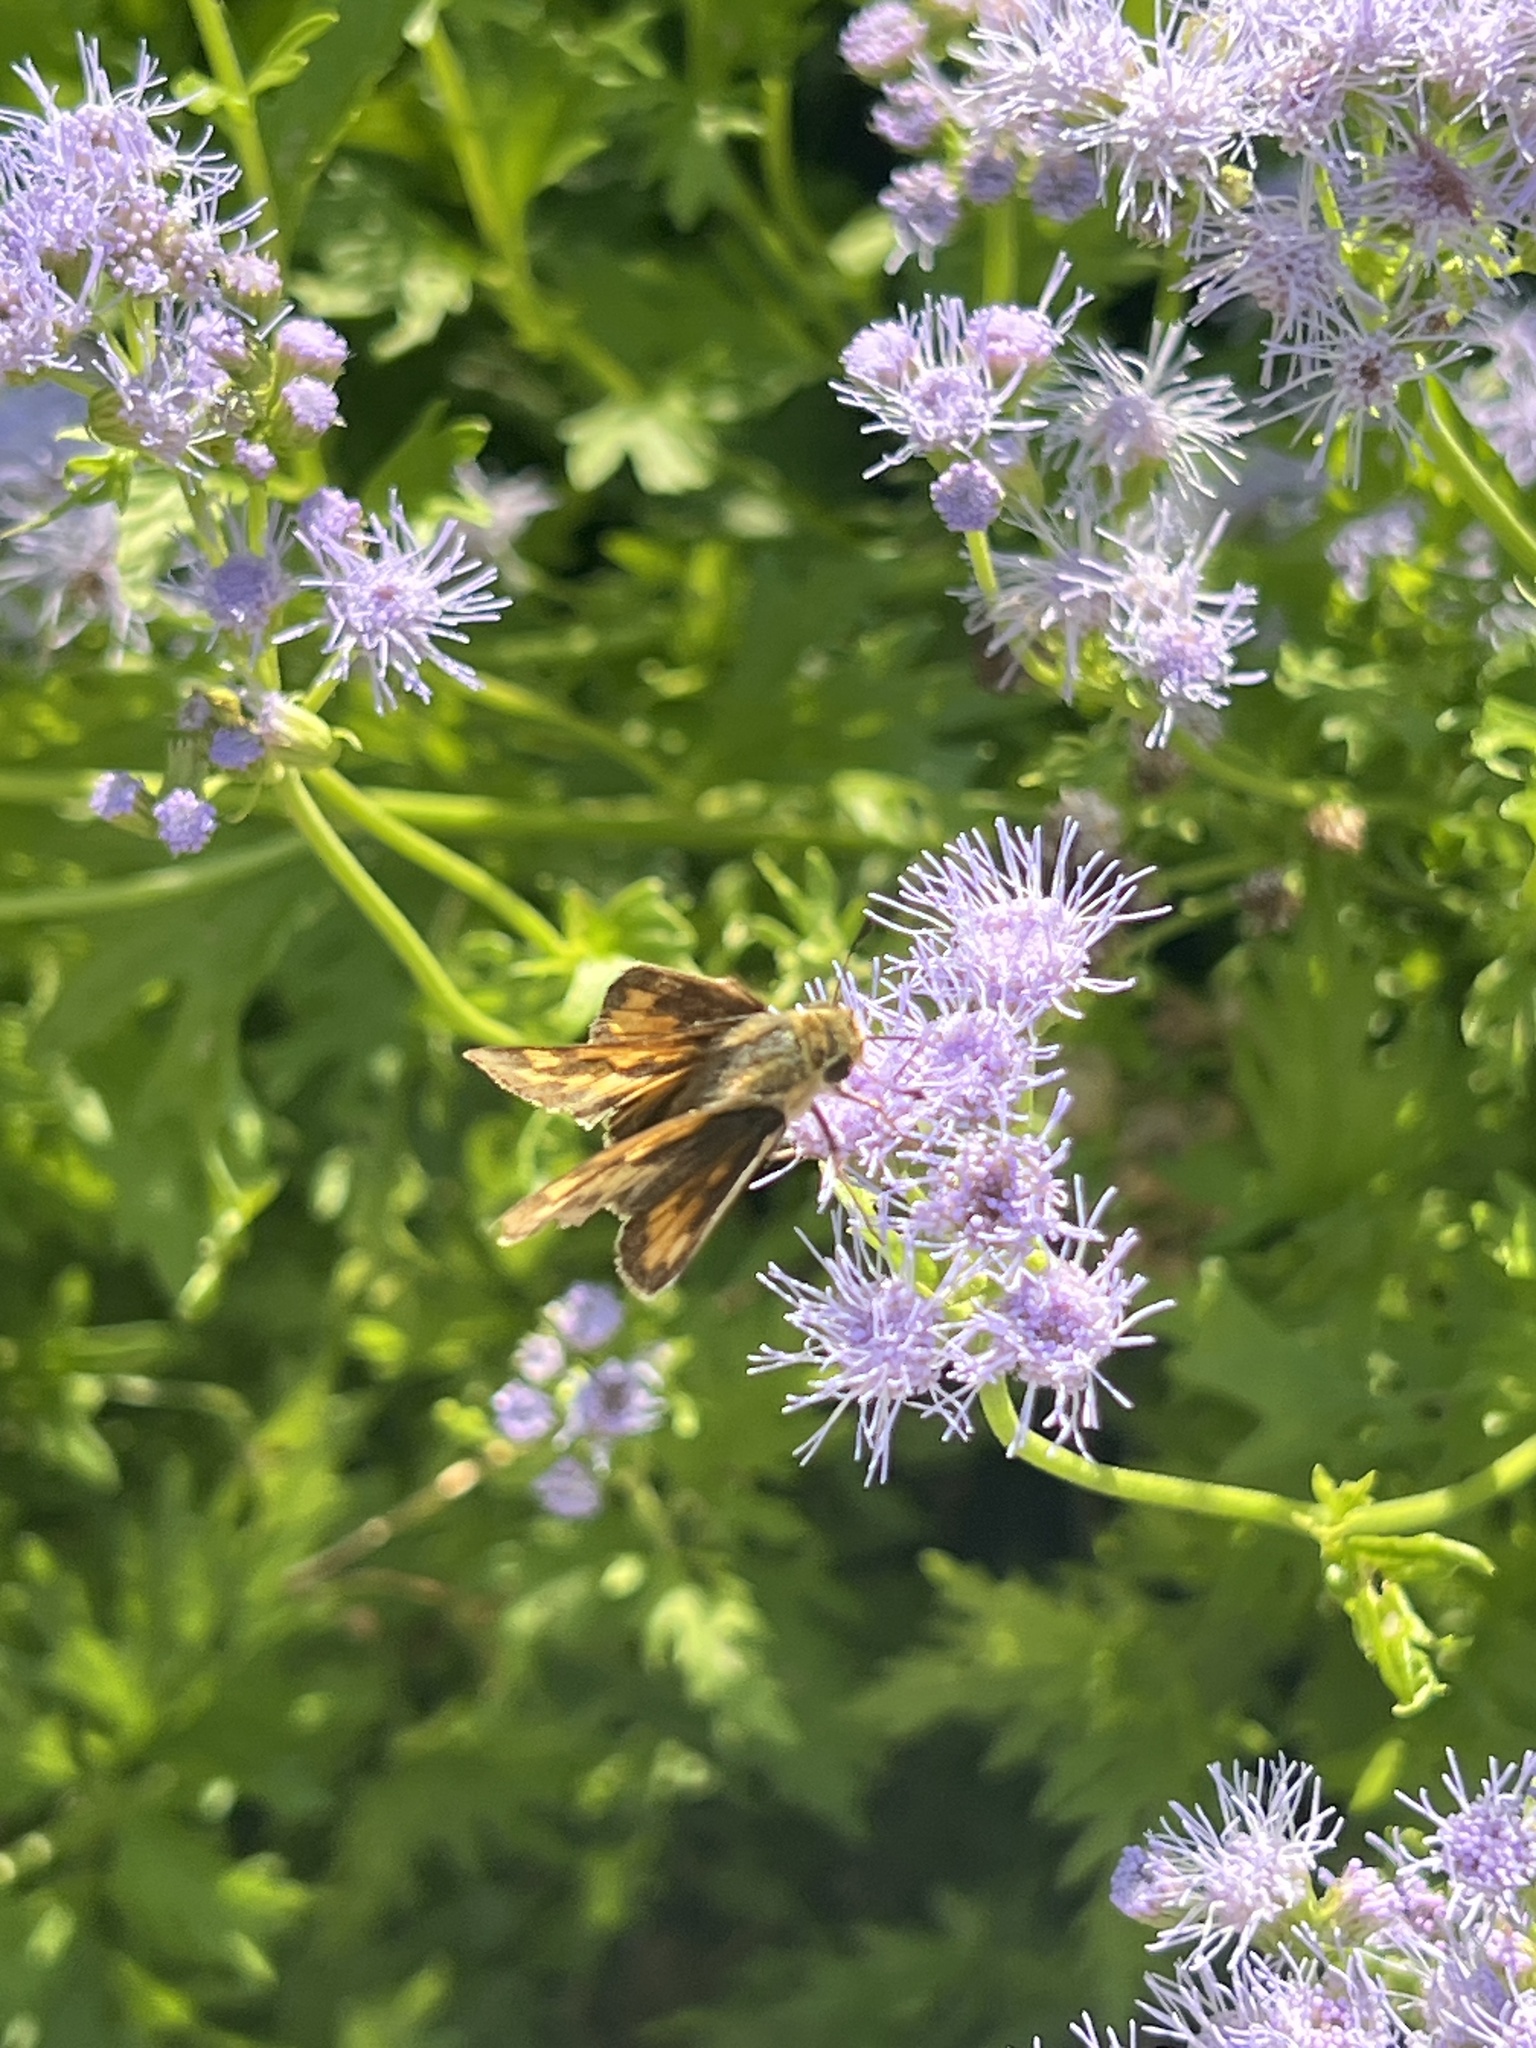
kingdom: Animalia
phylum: Arthropoda
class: Insecta
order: Lepidoptera
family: Hesperiidae
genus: Hylephila
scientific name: Hylephila phyleus
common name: Fiery skipper
